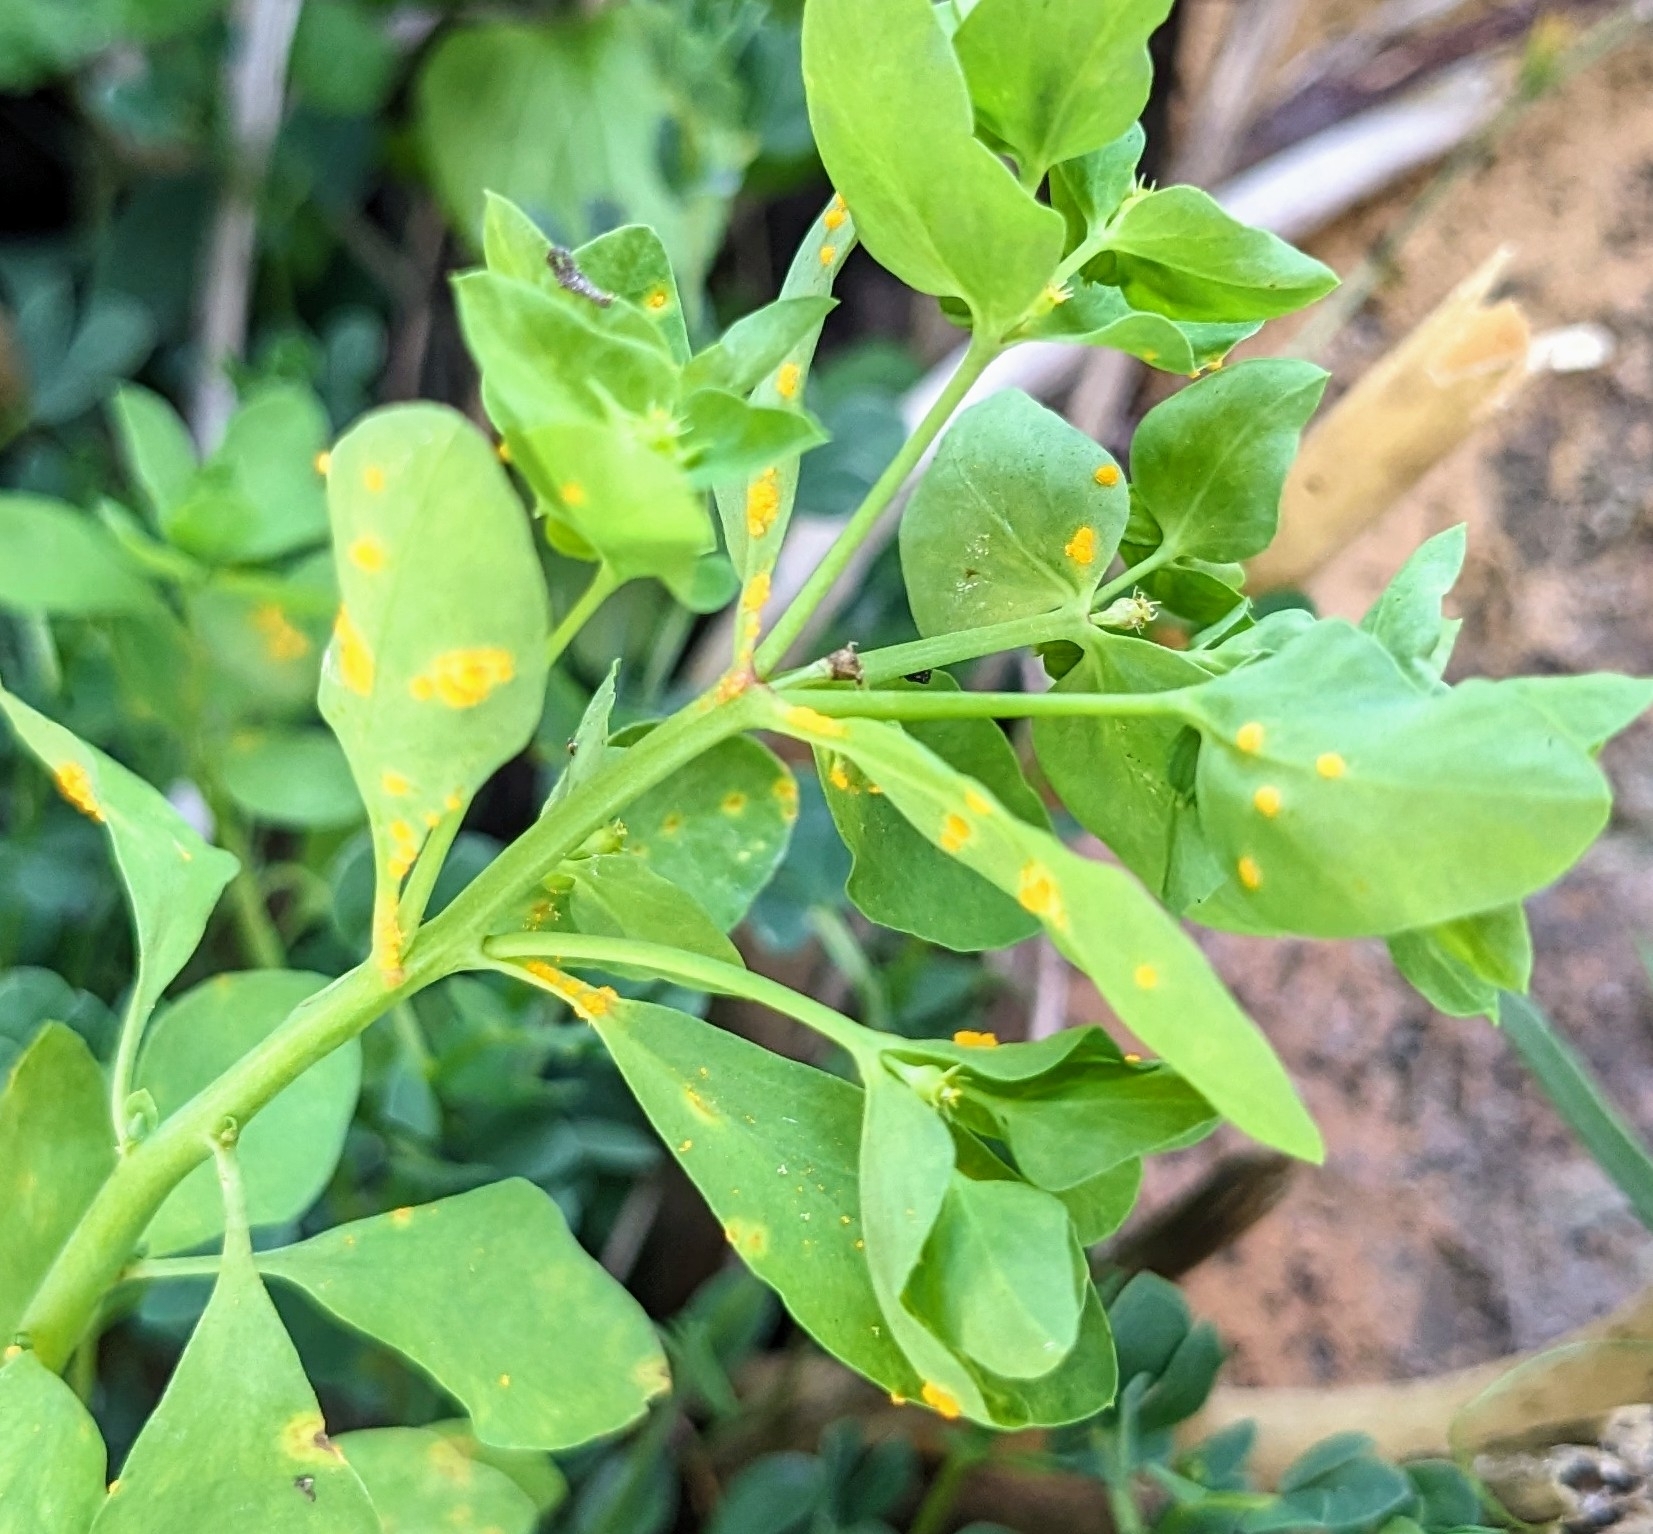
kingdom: Fungi
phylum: Basidiomycota
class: Pucciniomycetes
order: Pucciniales
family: Melampsoraceae
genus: Melampsora
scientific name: Melampsora euphorbiae
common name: Spurge rust
